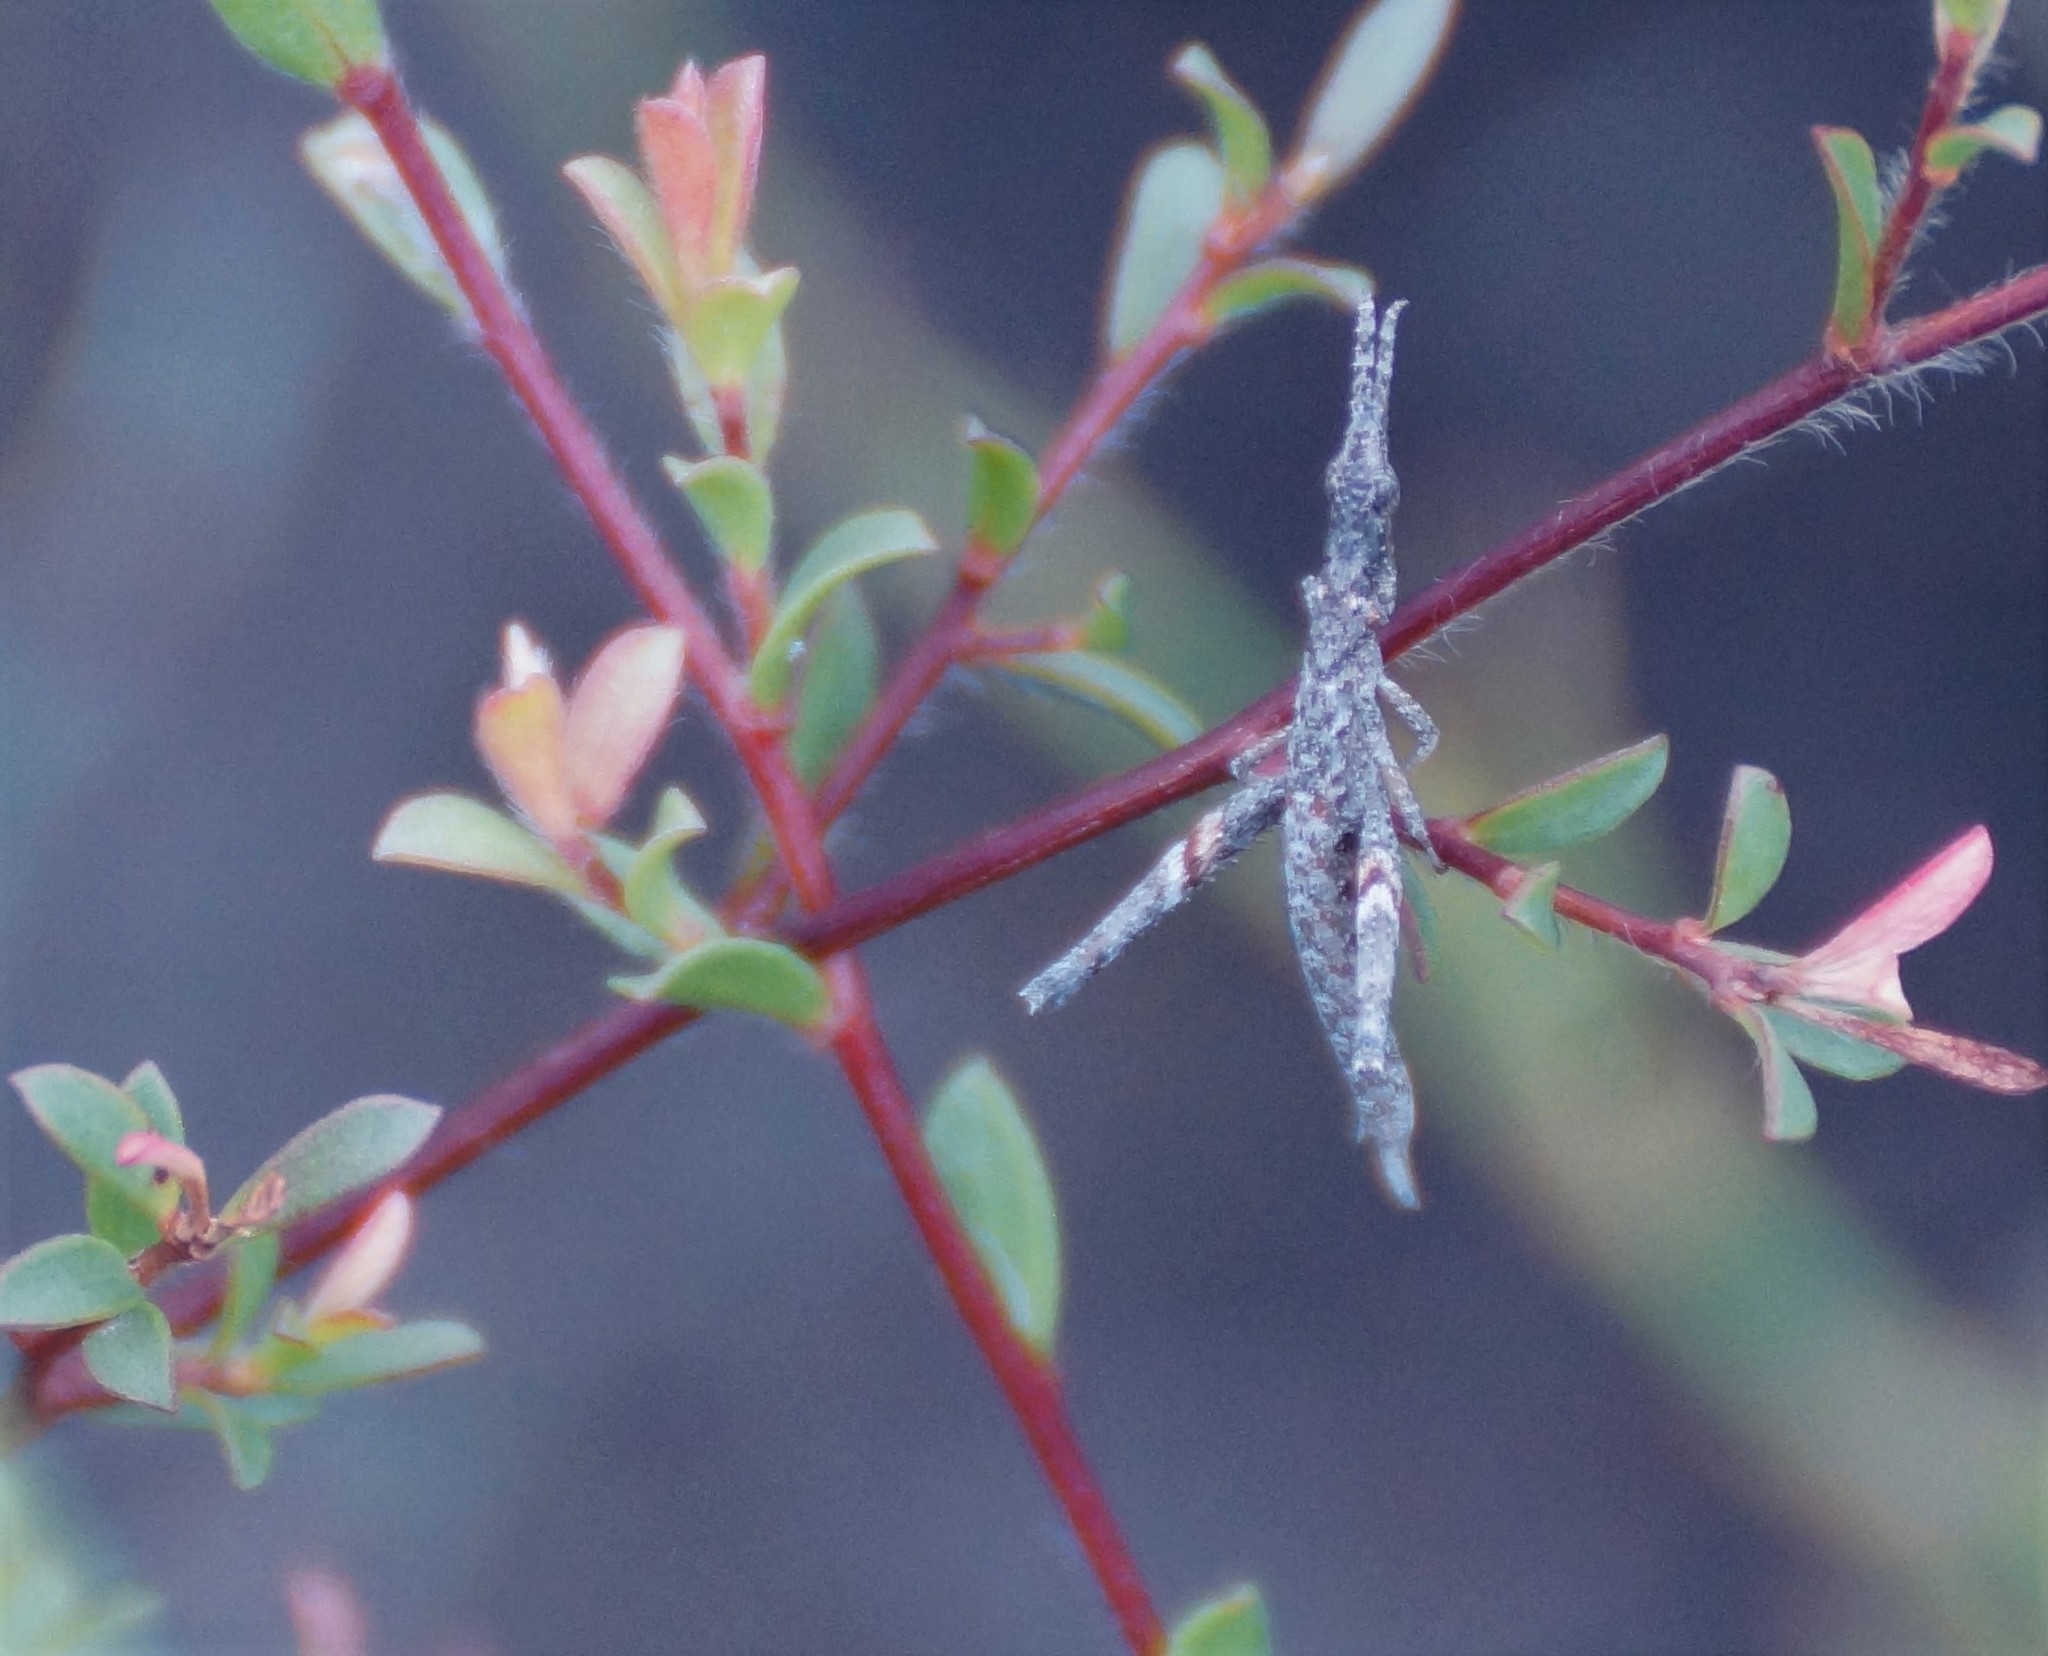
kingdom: Animalia
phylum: Arthropoda
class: Insecta
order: Orthoptera
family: Morabidae
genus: Vandiemenella
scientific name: Vandiemenella viatica
